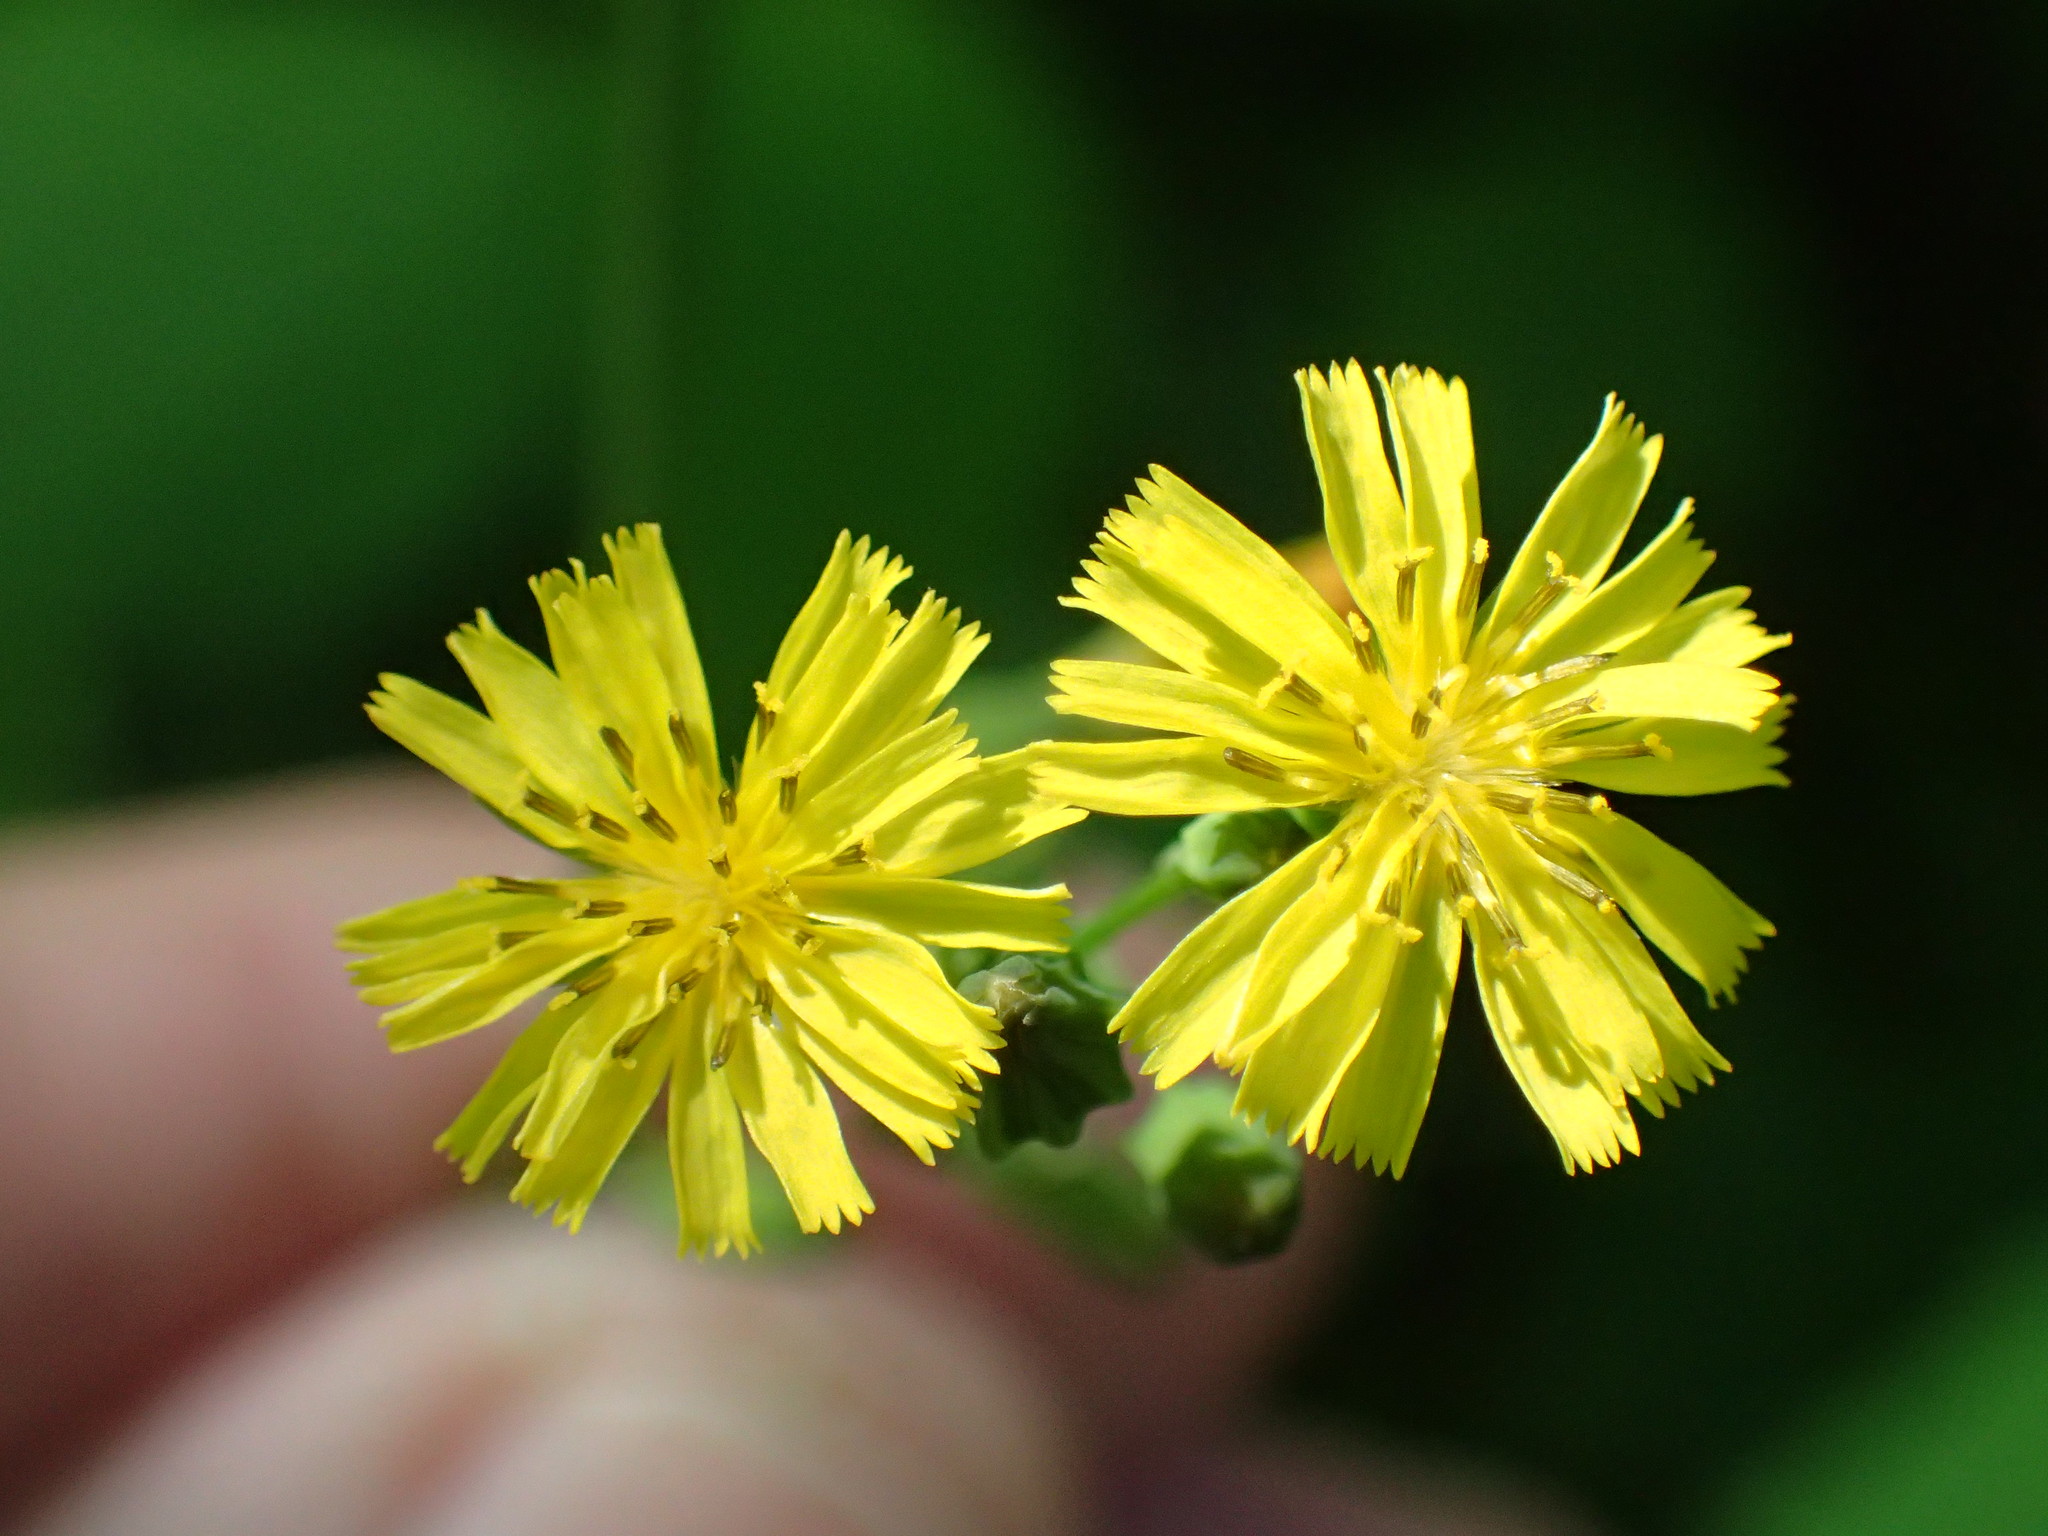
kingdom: Plantae
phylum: Tracheophyta
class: Magnoliopsida
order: Asterales
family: Asteraceae
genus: Youngia
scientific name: Youngia japonica
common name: Oriental false hawksbeard
